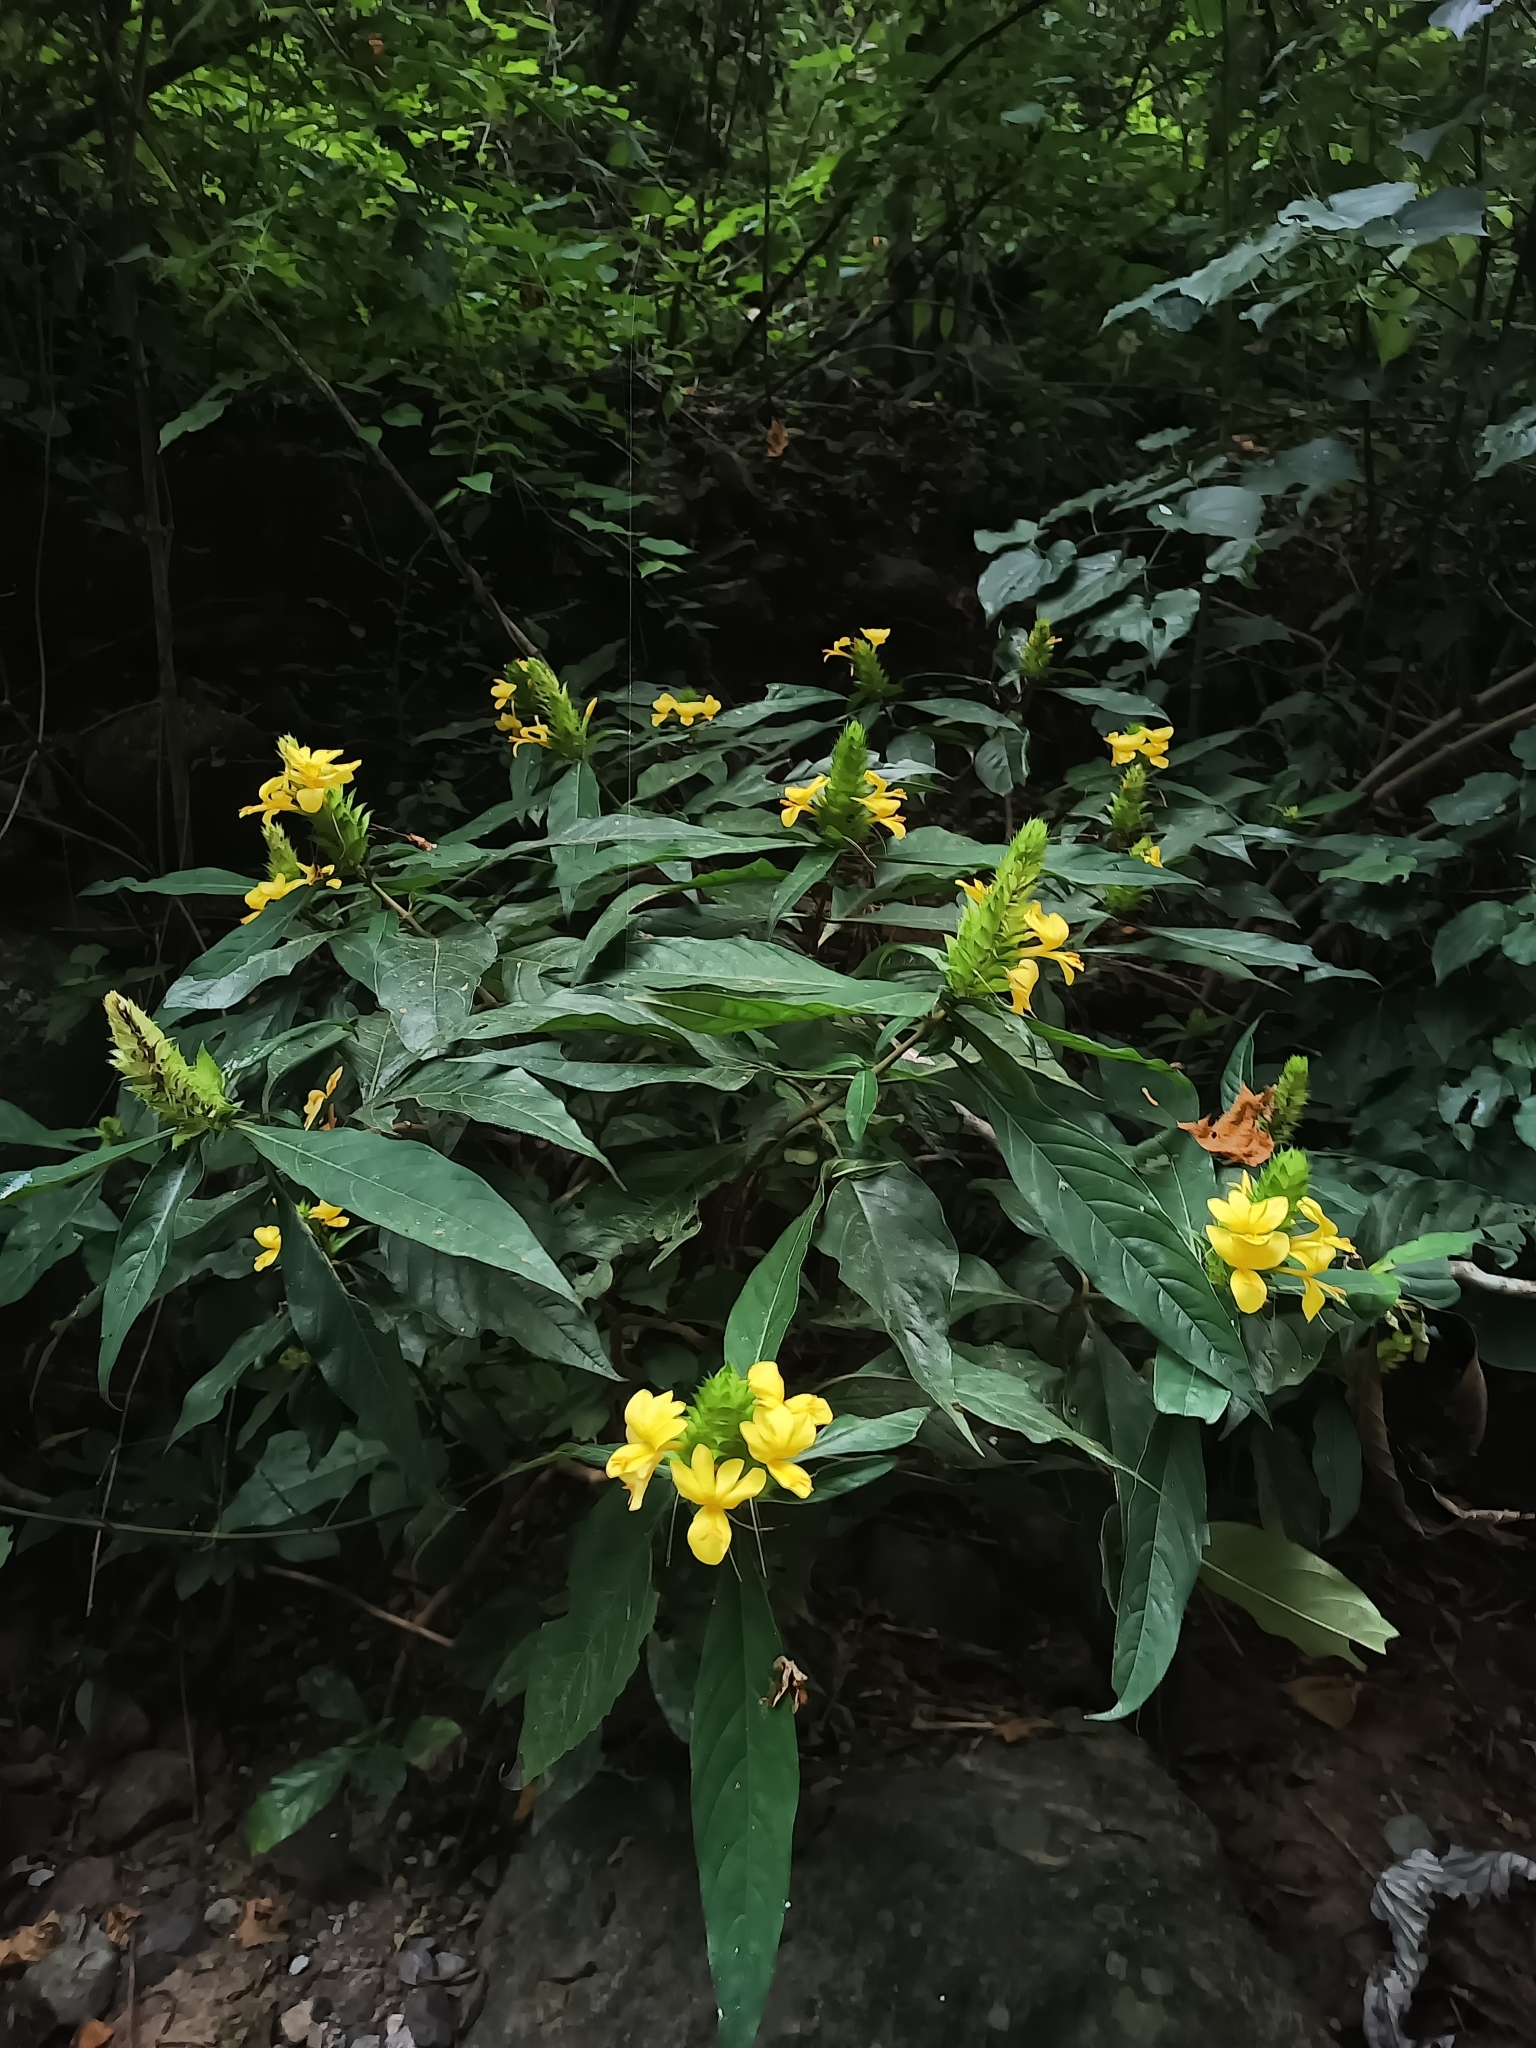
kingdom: Plantae
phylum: Tracheophyta
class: Magnoliopsida
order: Lamiales
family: Acanthaceae
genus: Barleria
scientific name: Barleria oenotheroides
